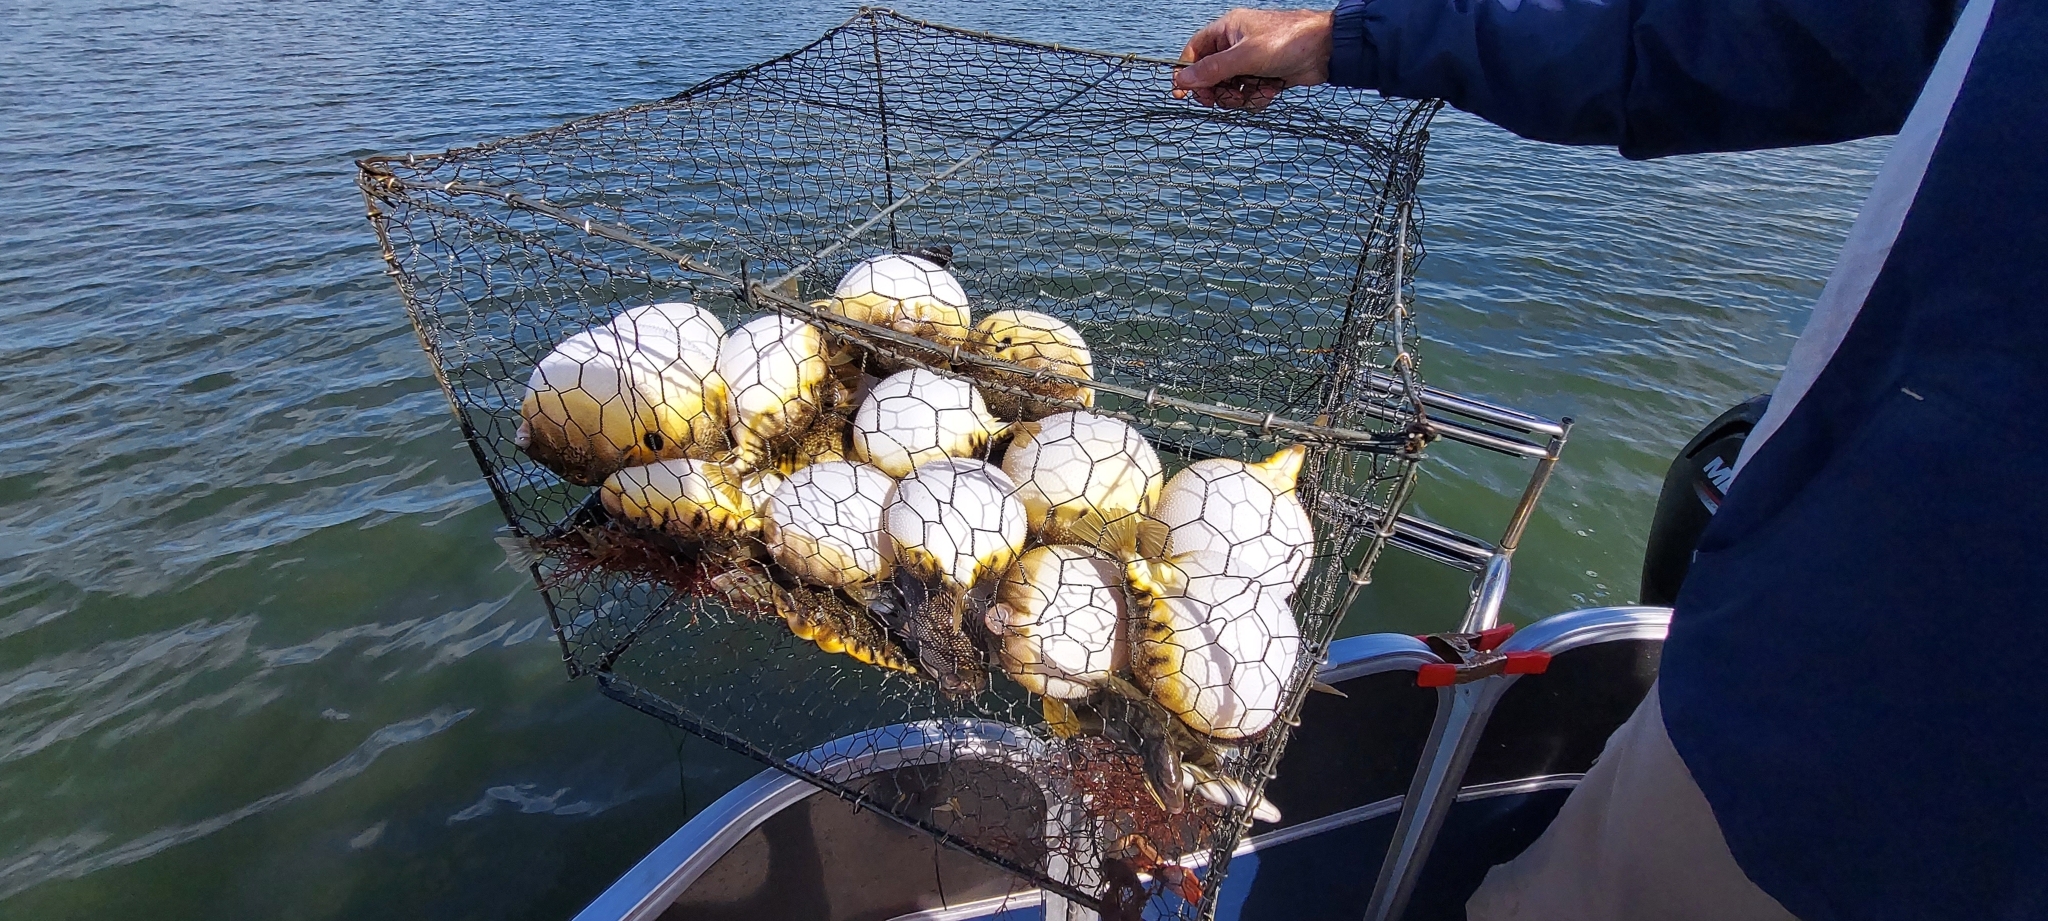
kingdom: Animalia
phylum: Chordata
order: Tetraodontiformes
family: Tetraodontidae
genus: Sphoeroides
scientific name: Sphoeroides maculatus
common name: Northern puffer
